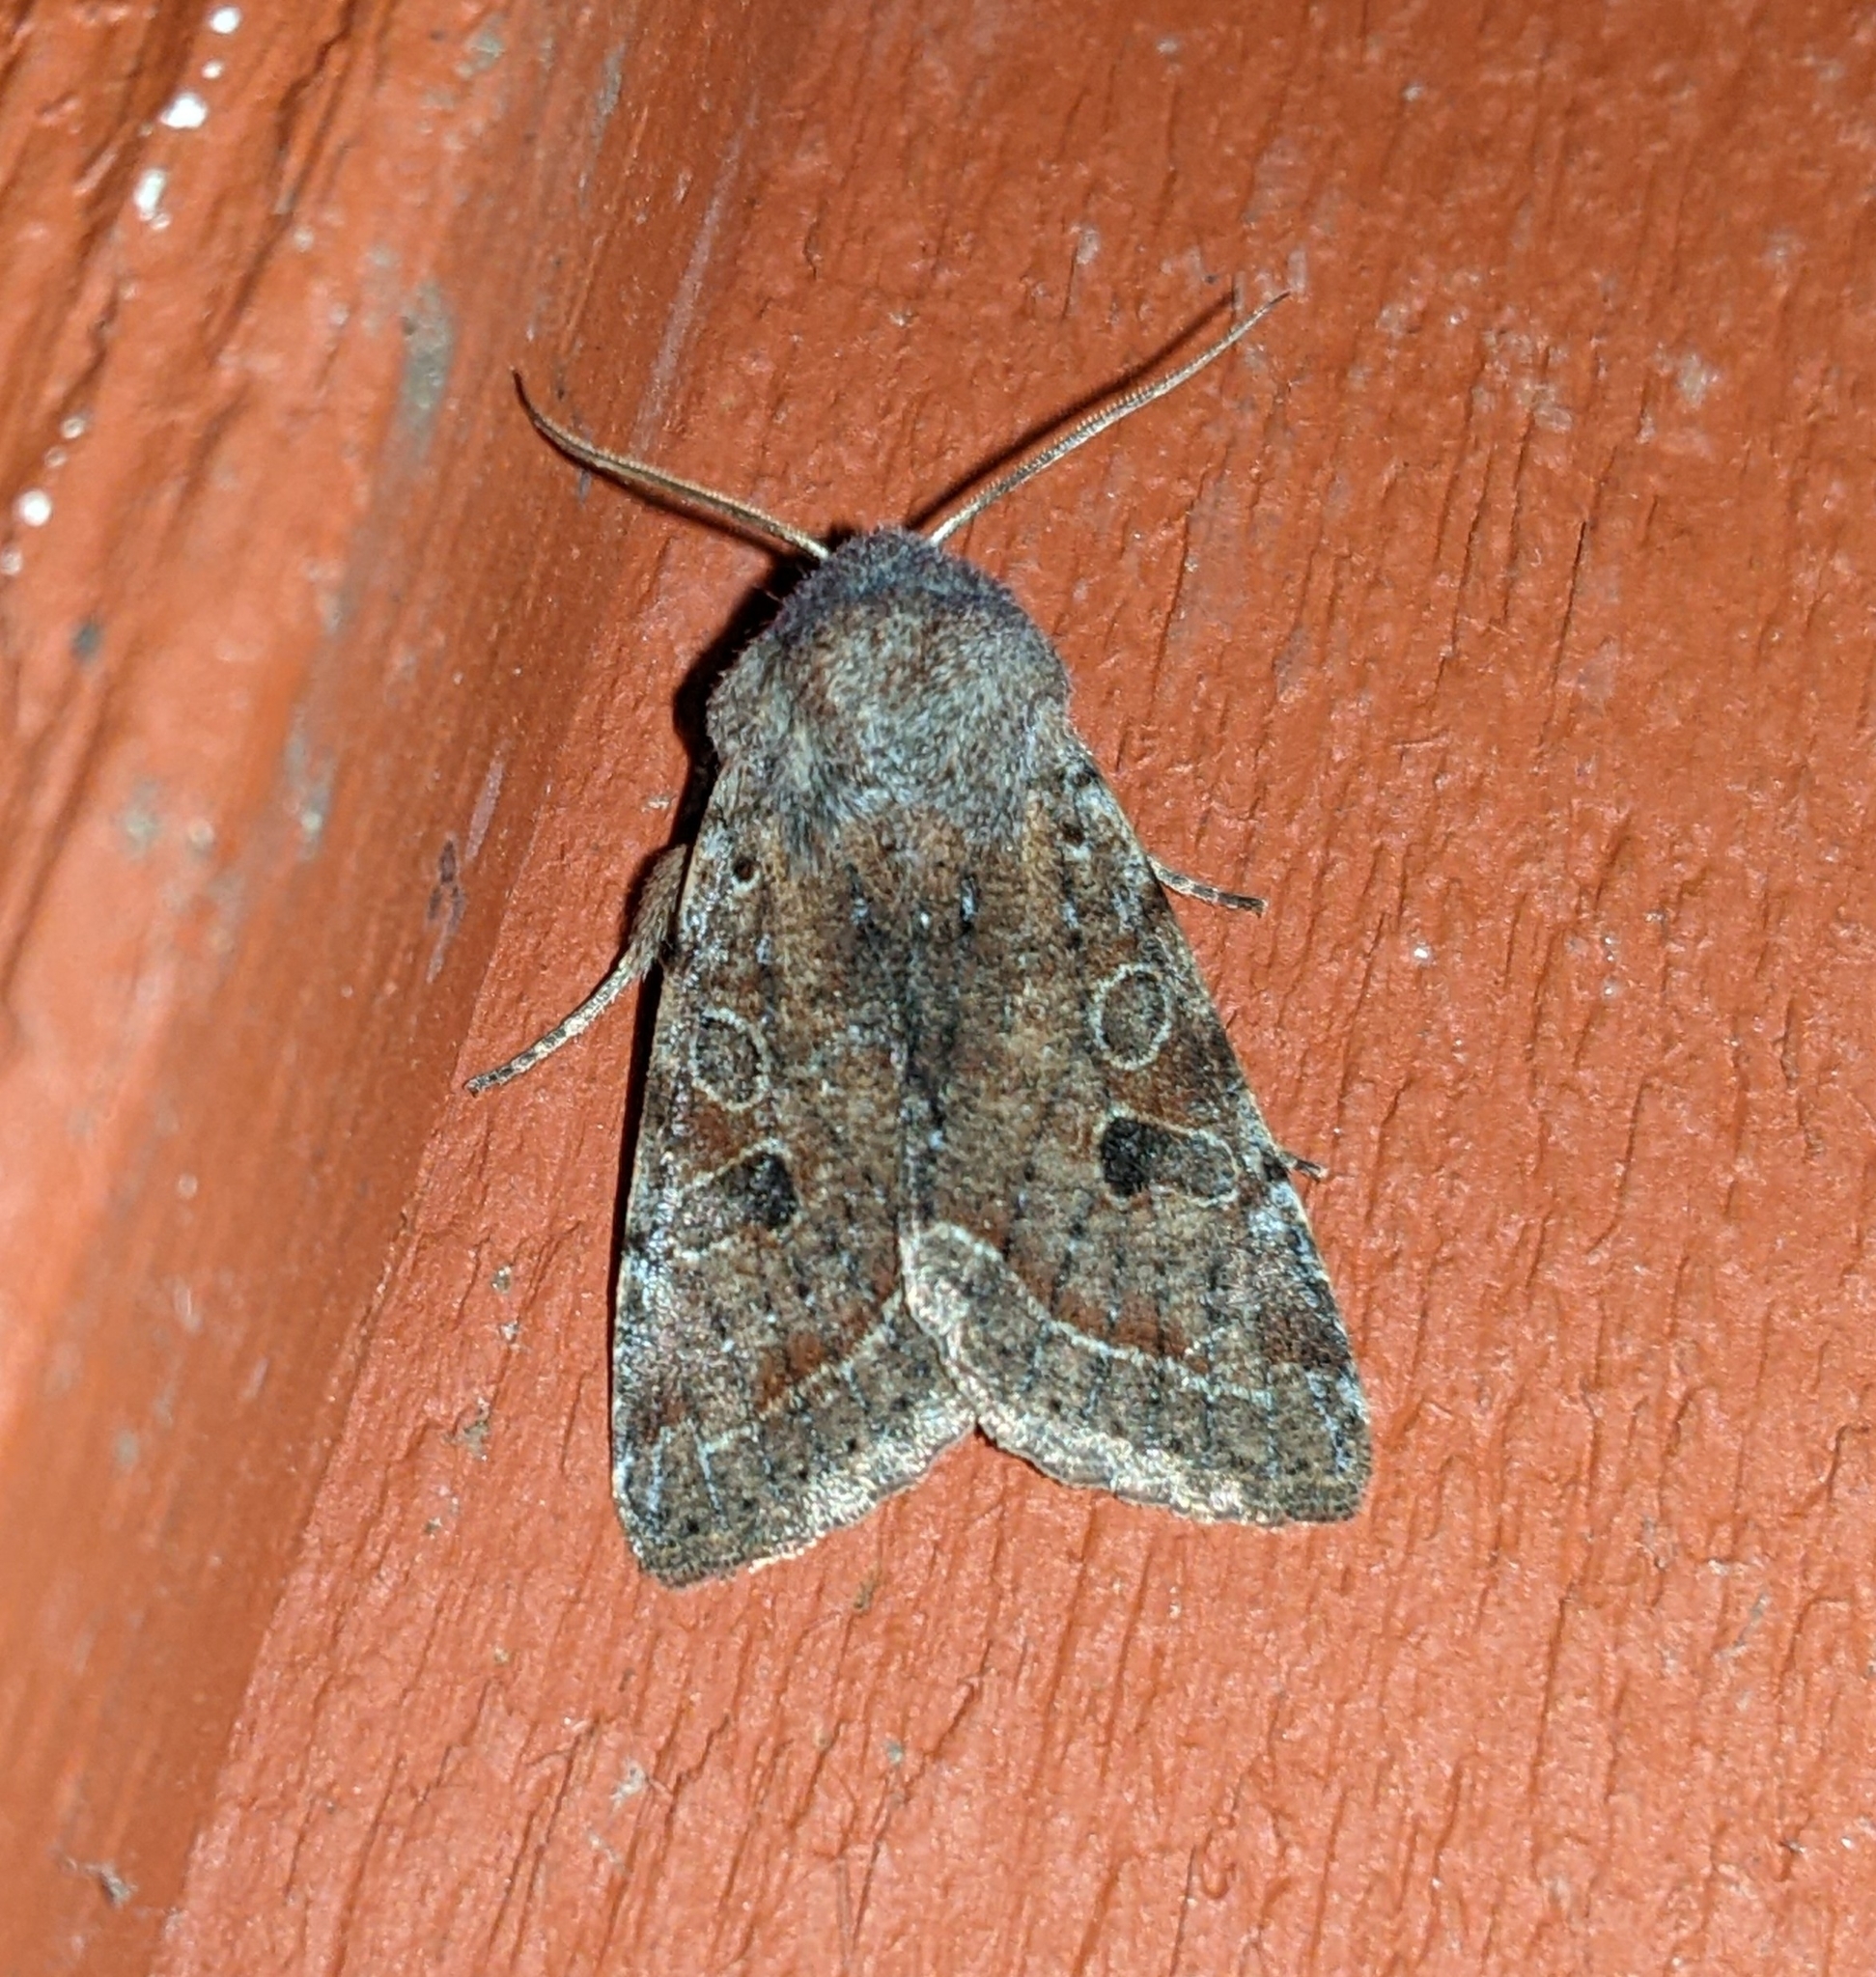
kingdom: Animalia
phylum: Arthropoda
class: Insecta
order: Lepidoptera
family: Noctuidae
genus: Orthosia
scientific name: Orthosia hibisci
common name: Green fruitworm
